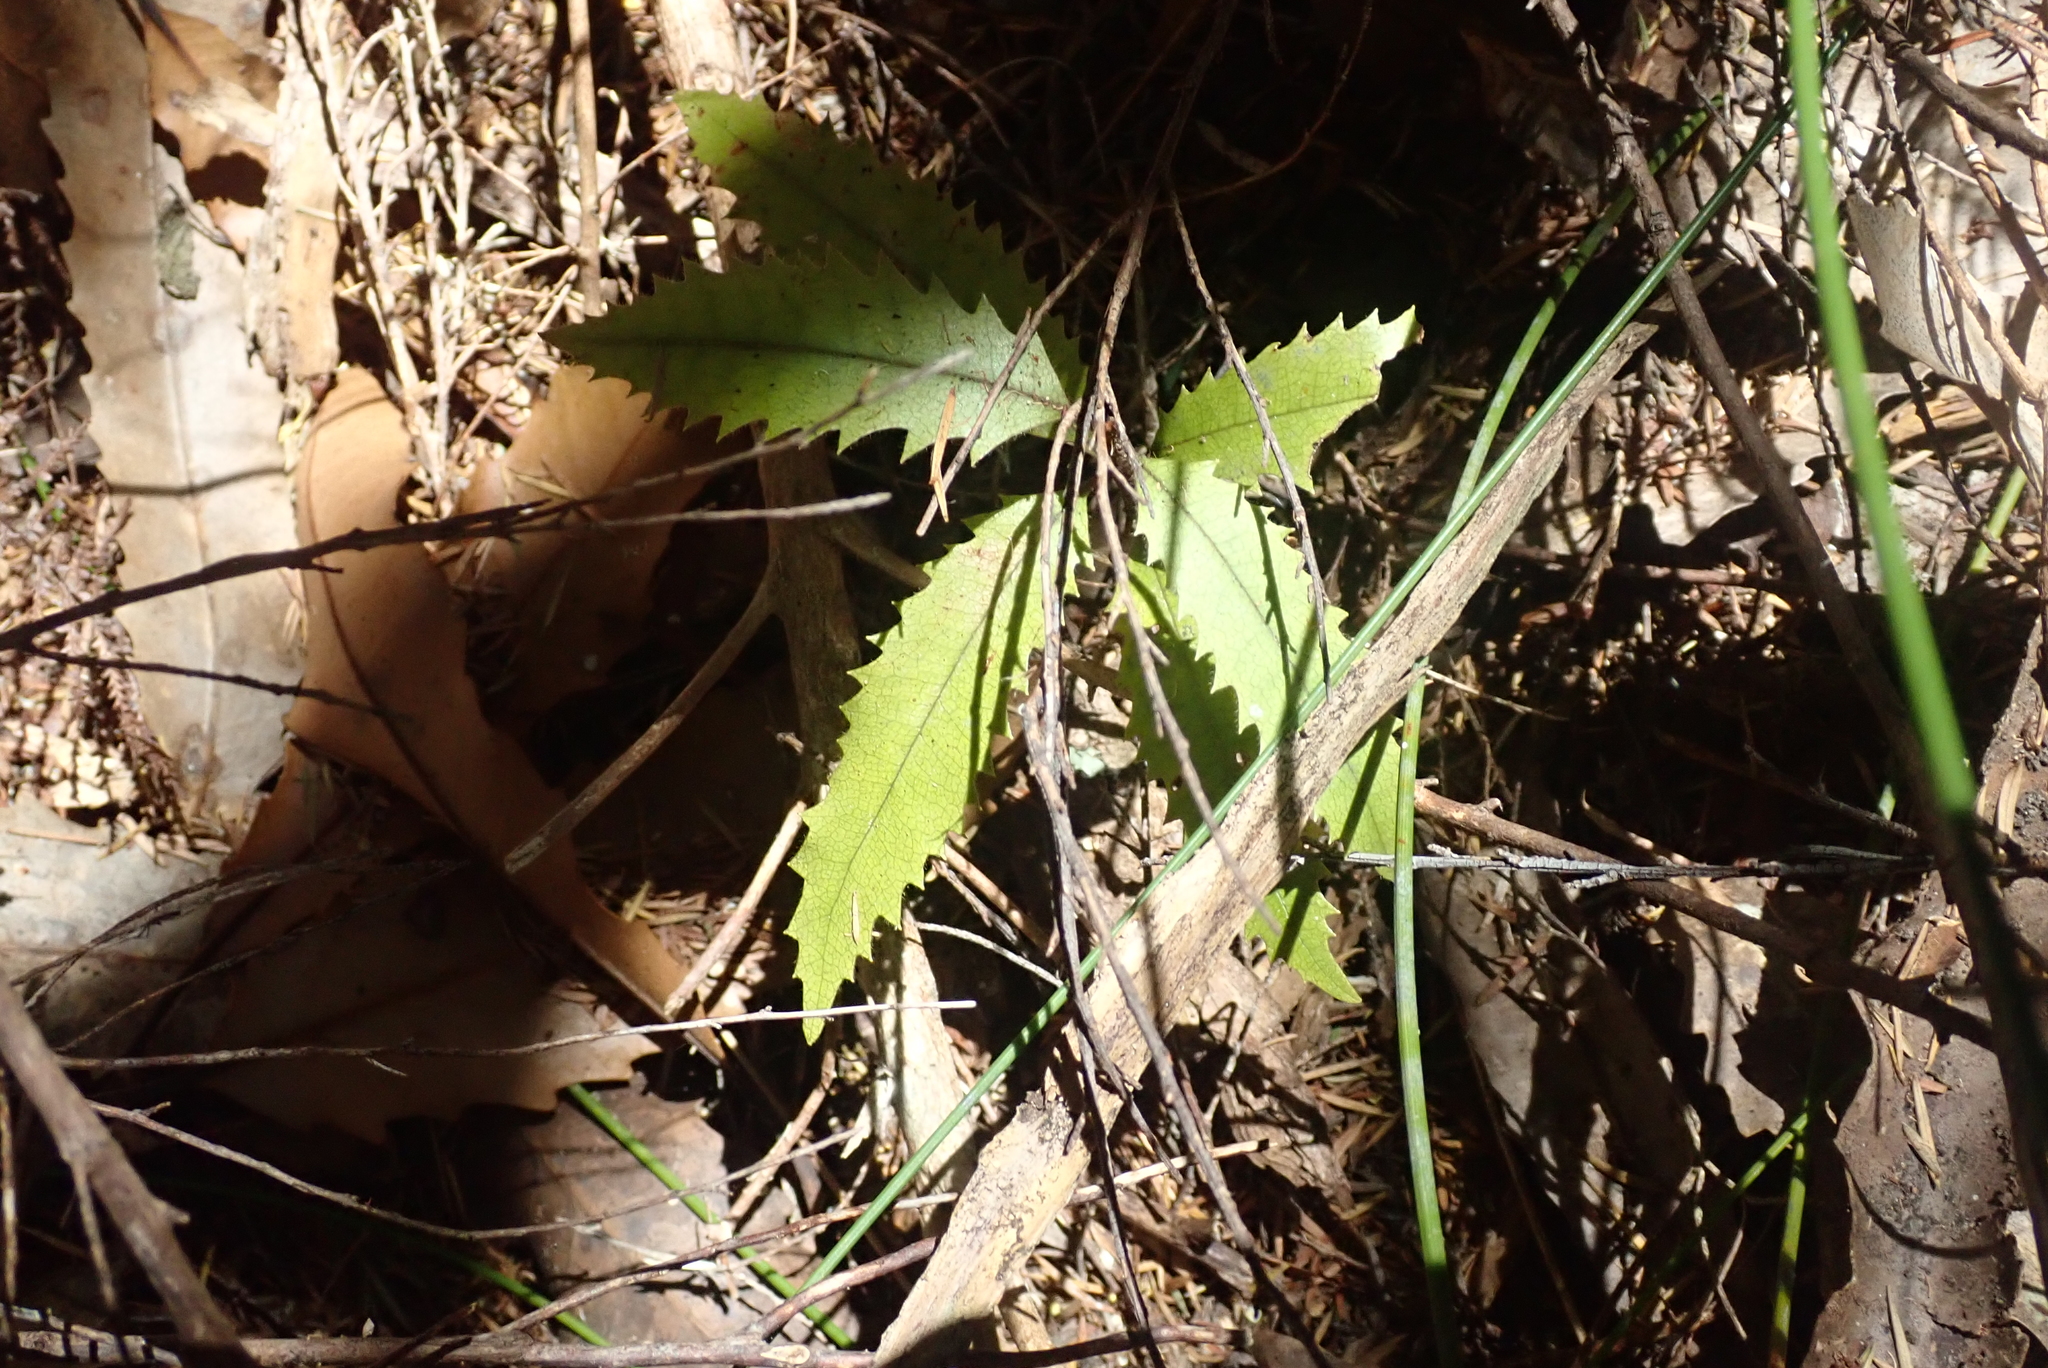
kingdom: Plantae
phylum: Tracheophyta
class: Magnoliopsida
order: Proteales
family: Proteaceae
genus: Knightia
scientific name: Knightia excelsa
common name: New zealand-honeysuckle
